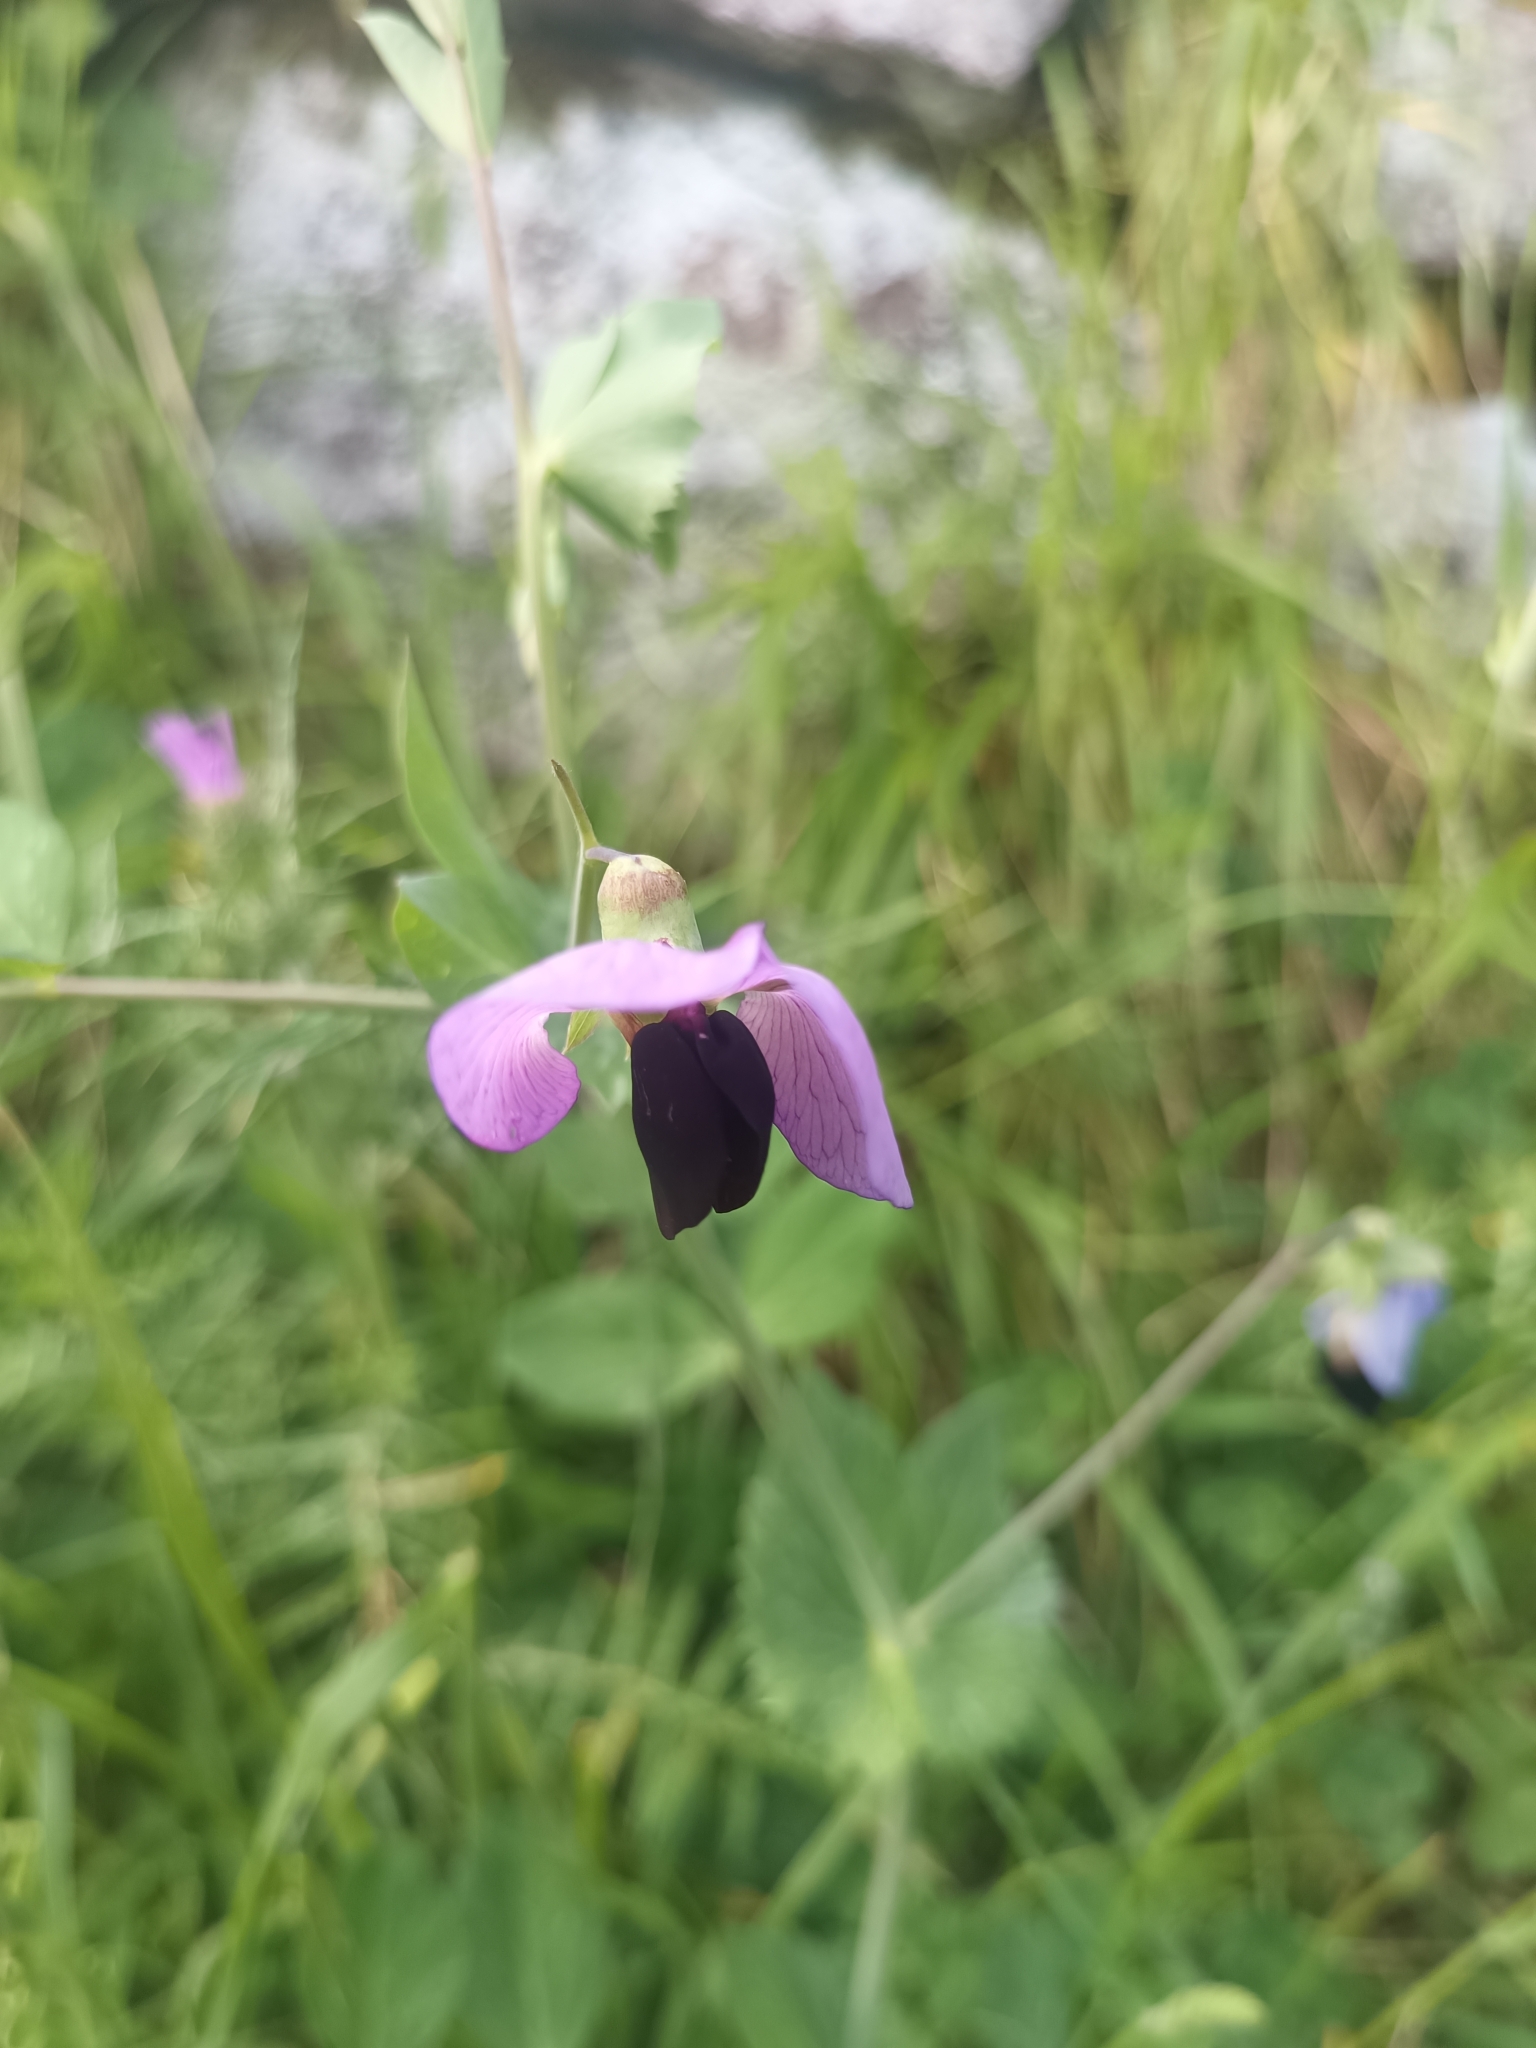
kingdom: Plantae
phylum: Tracheophyta
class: Magnoliopsida
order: Fabales
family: Fabaceae
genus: Lathyrus
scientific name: Lathyrus oleraceus
